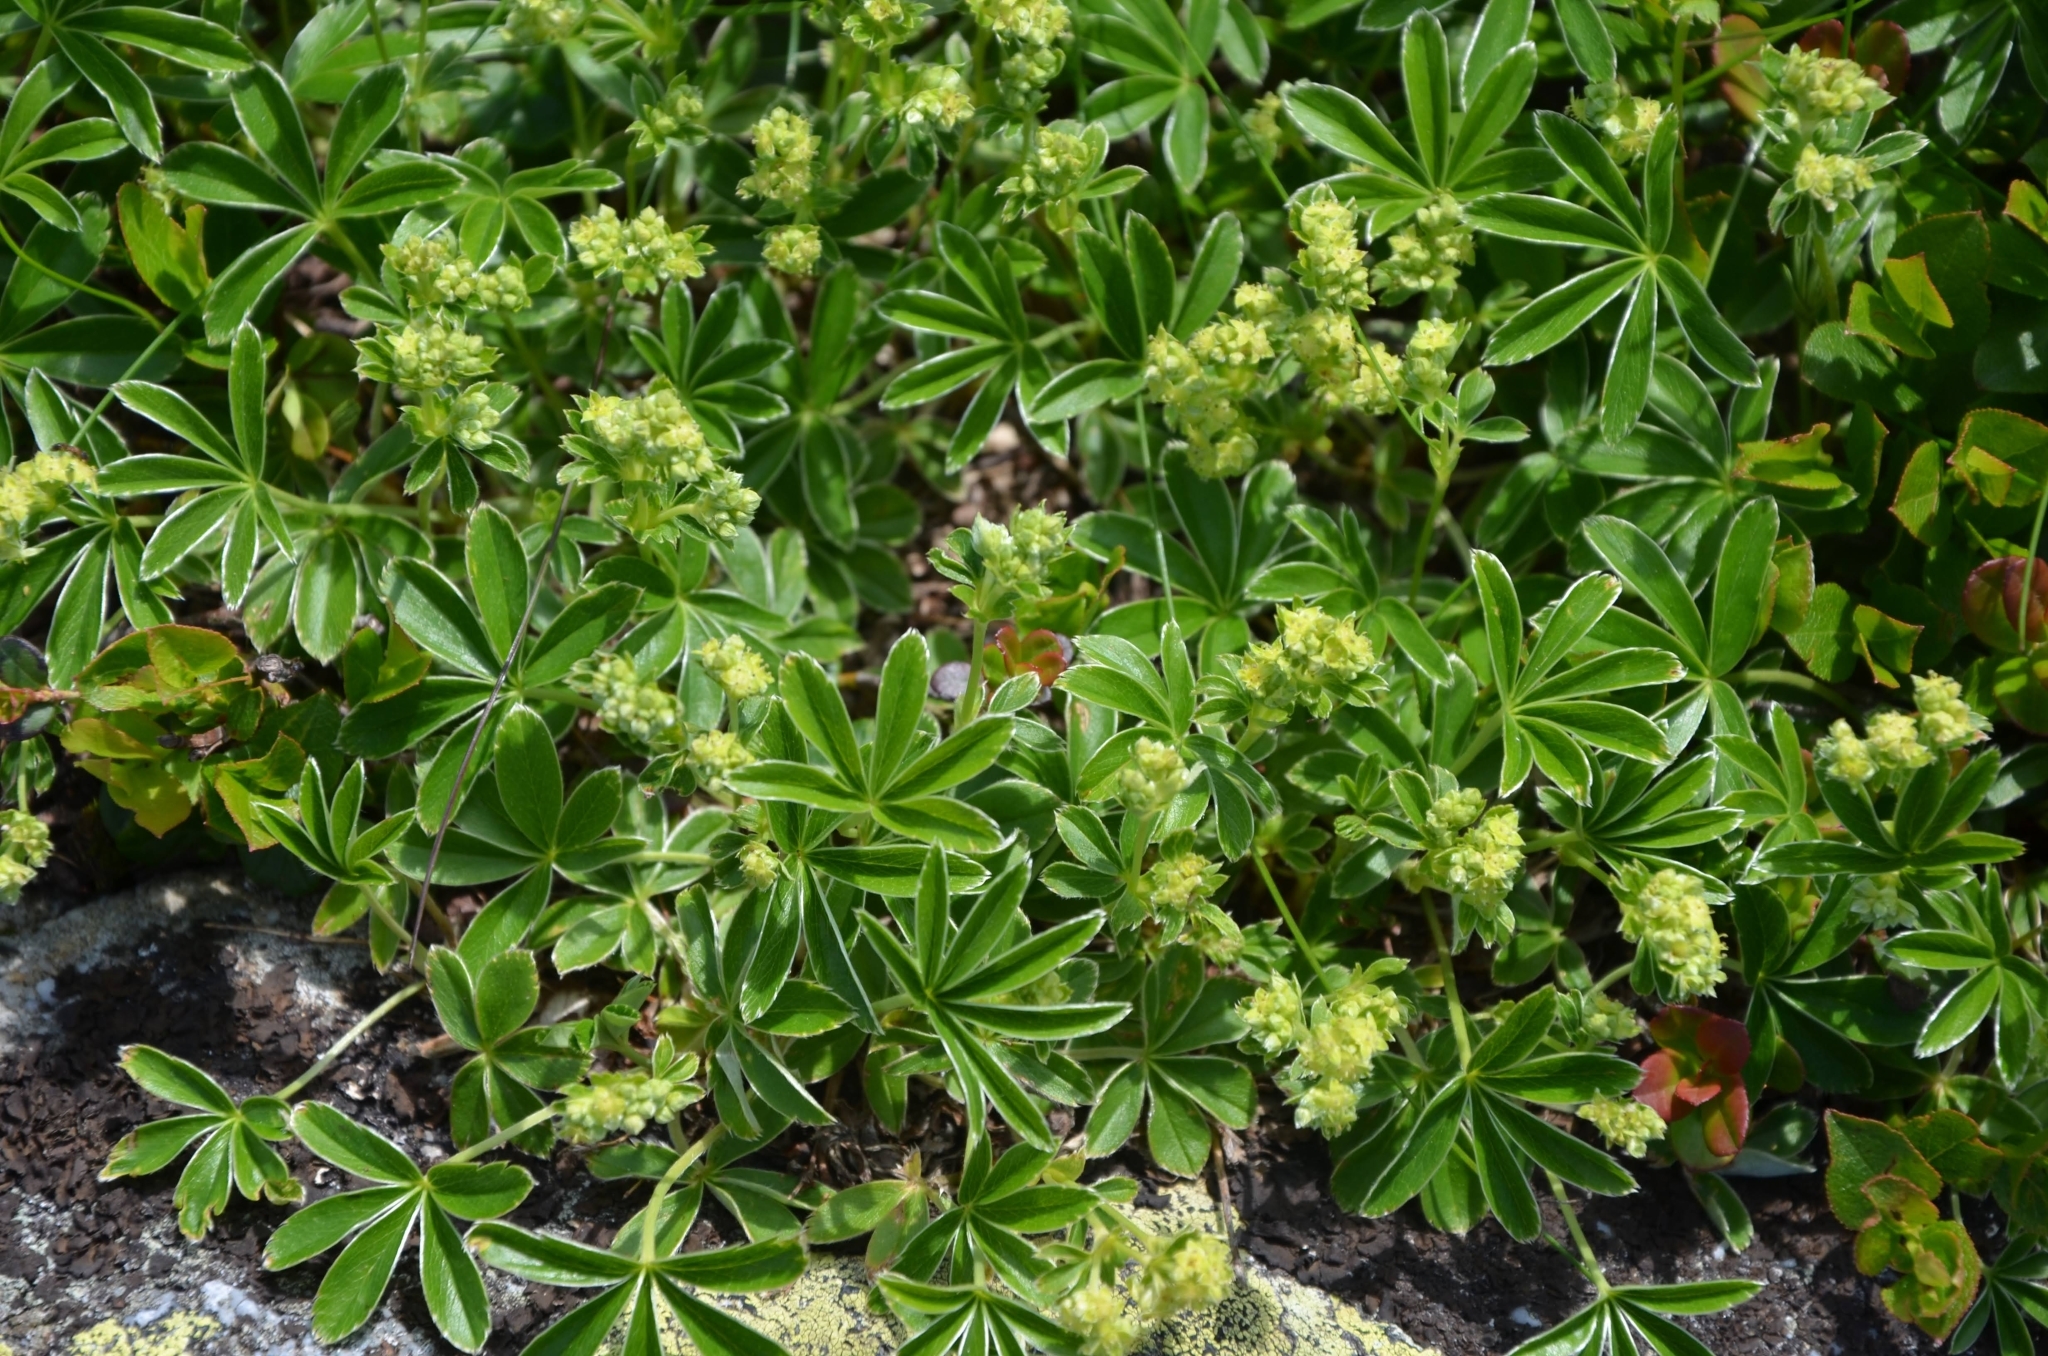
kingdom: Plantae
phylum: Tracheophyta
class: Magnoliopsida
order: Rosales
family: Rosaceae
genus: Alchemilla
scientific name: Alchemilla
